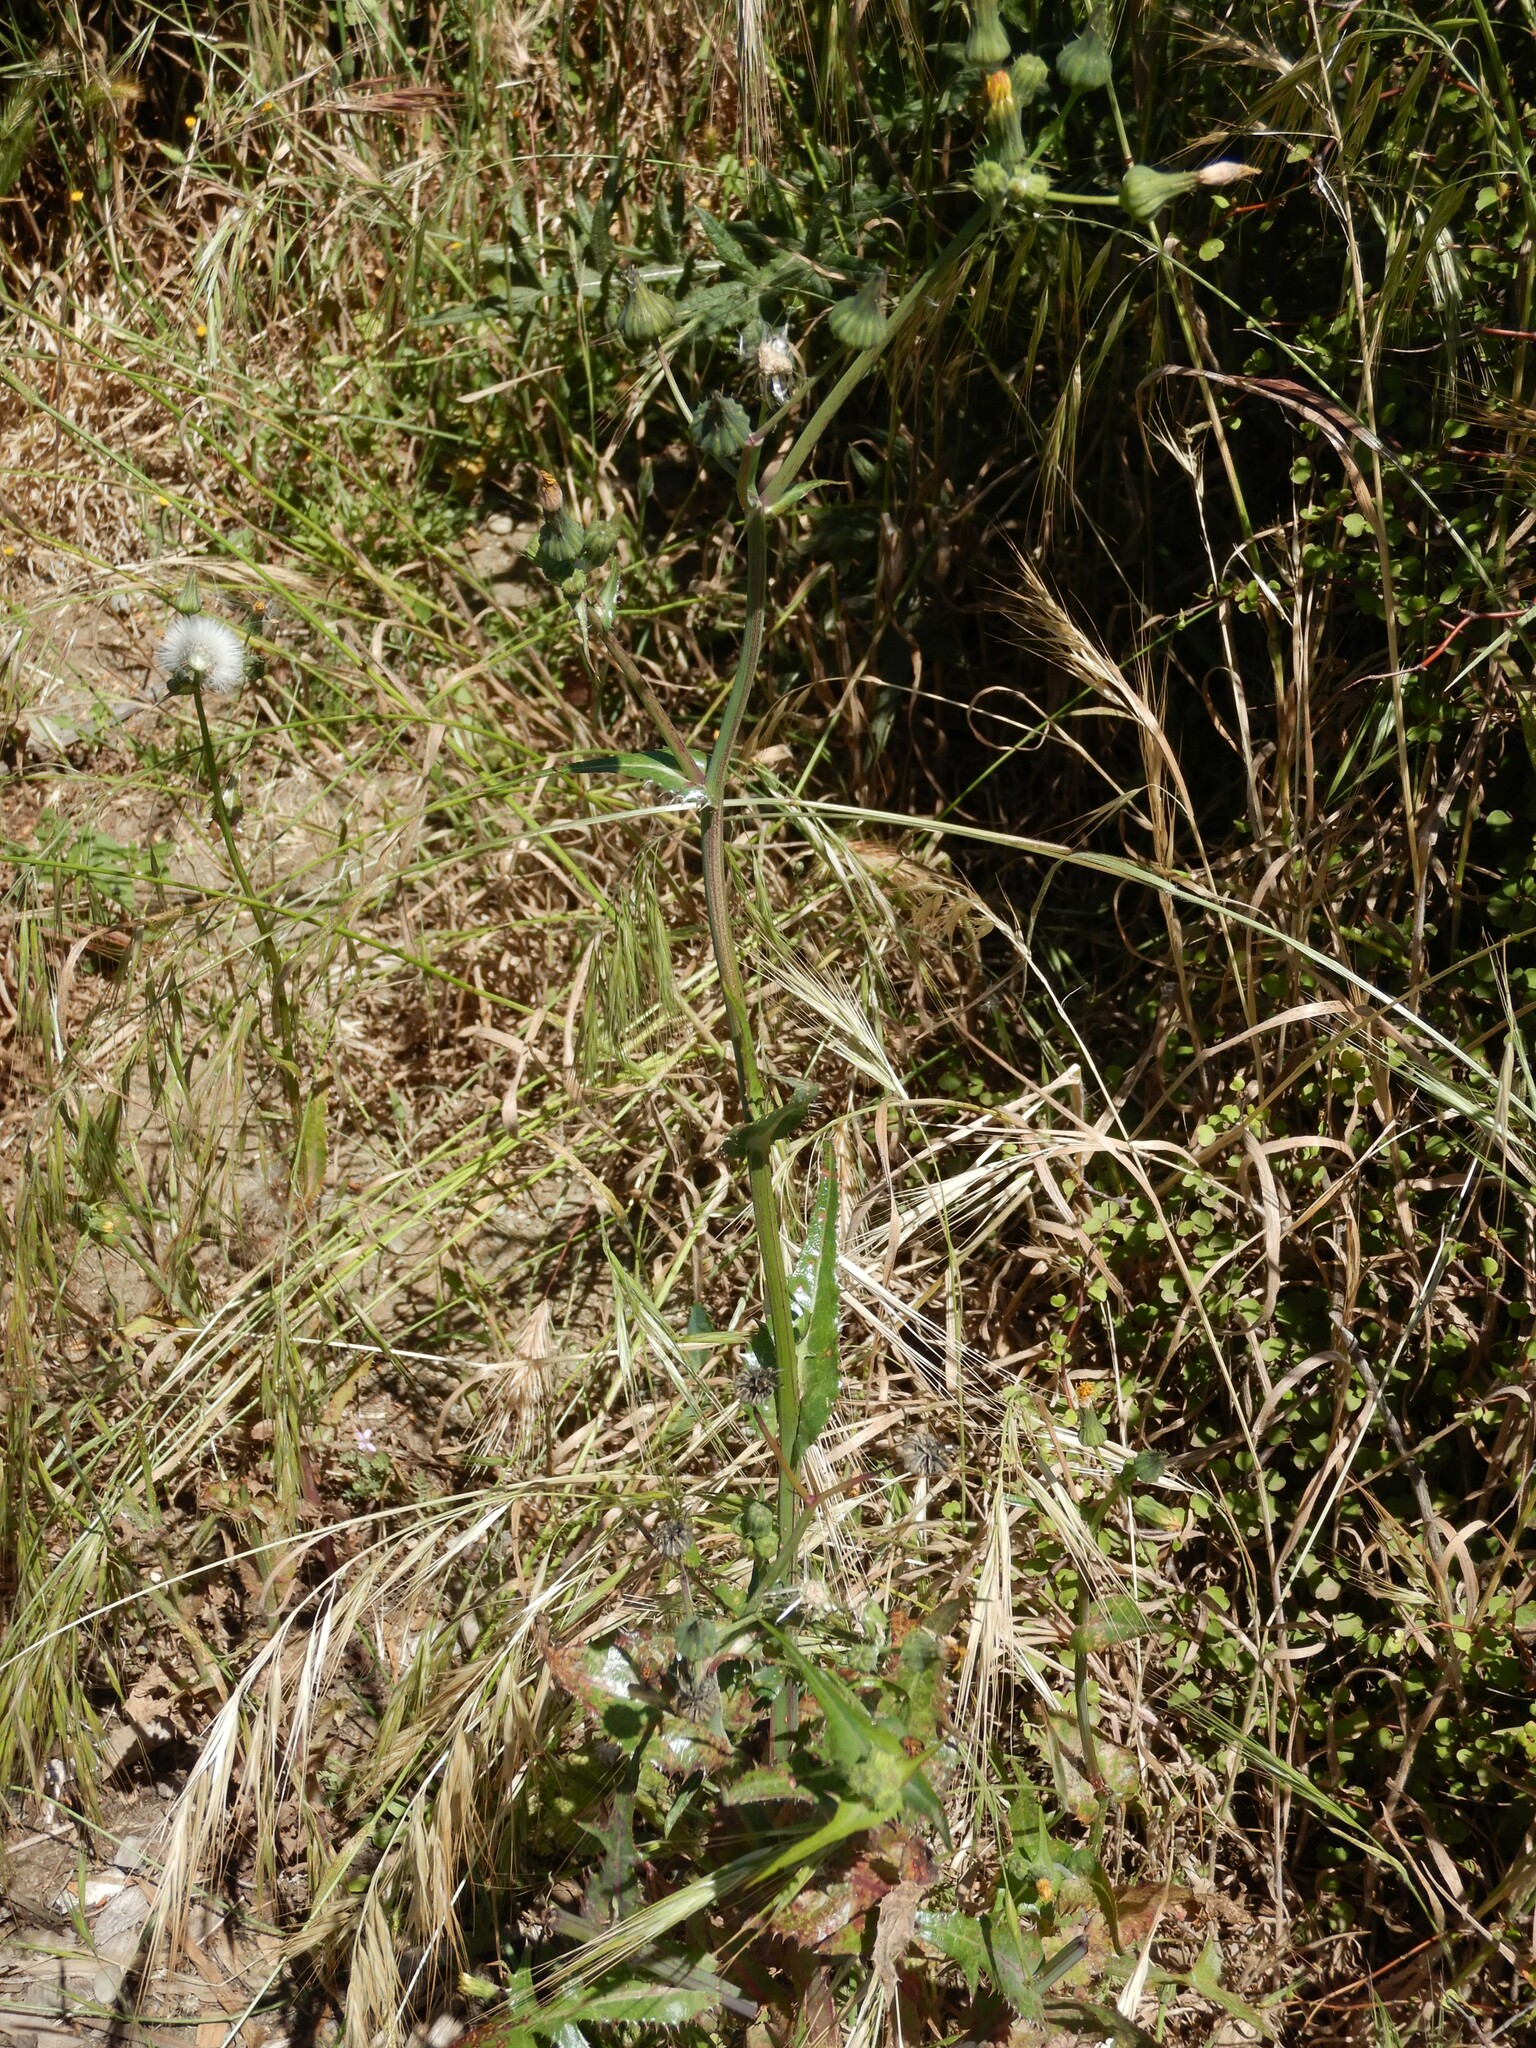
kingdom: Plantae
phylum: Tracheophyta
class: Magnoliopsida
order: Asterales
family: Asteraceae
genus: Sonchus
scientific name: Sonchus oleraceus
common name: Common sowthistle
